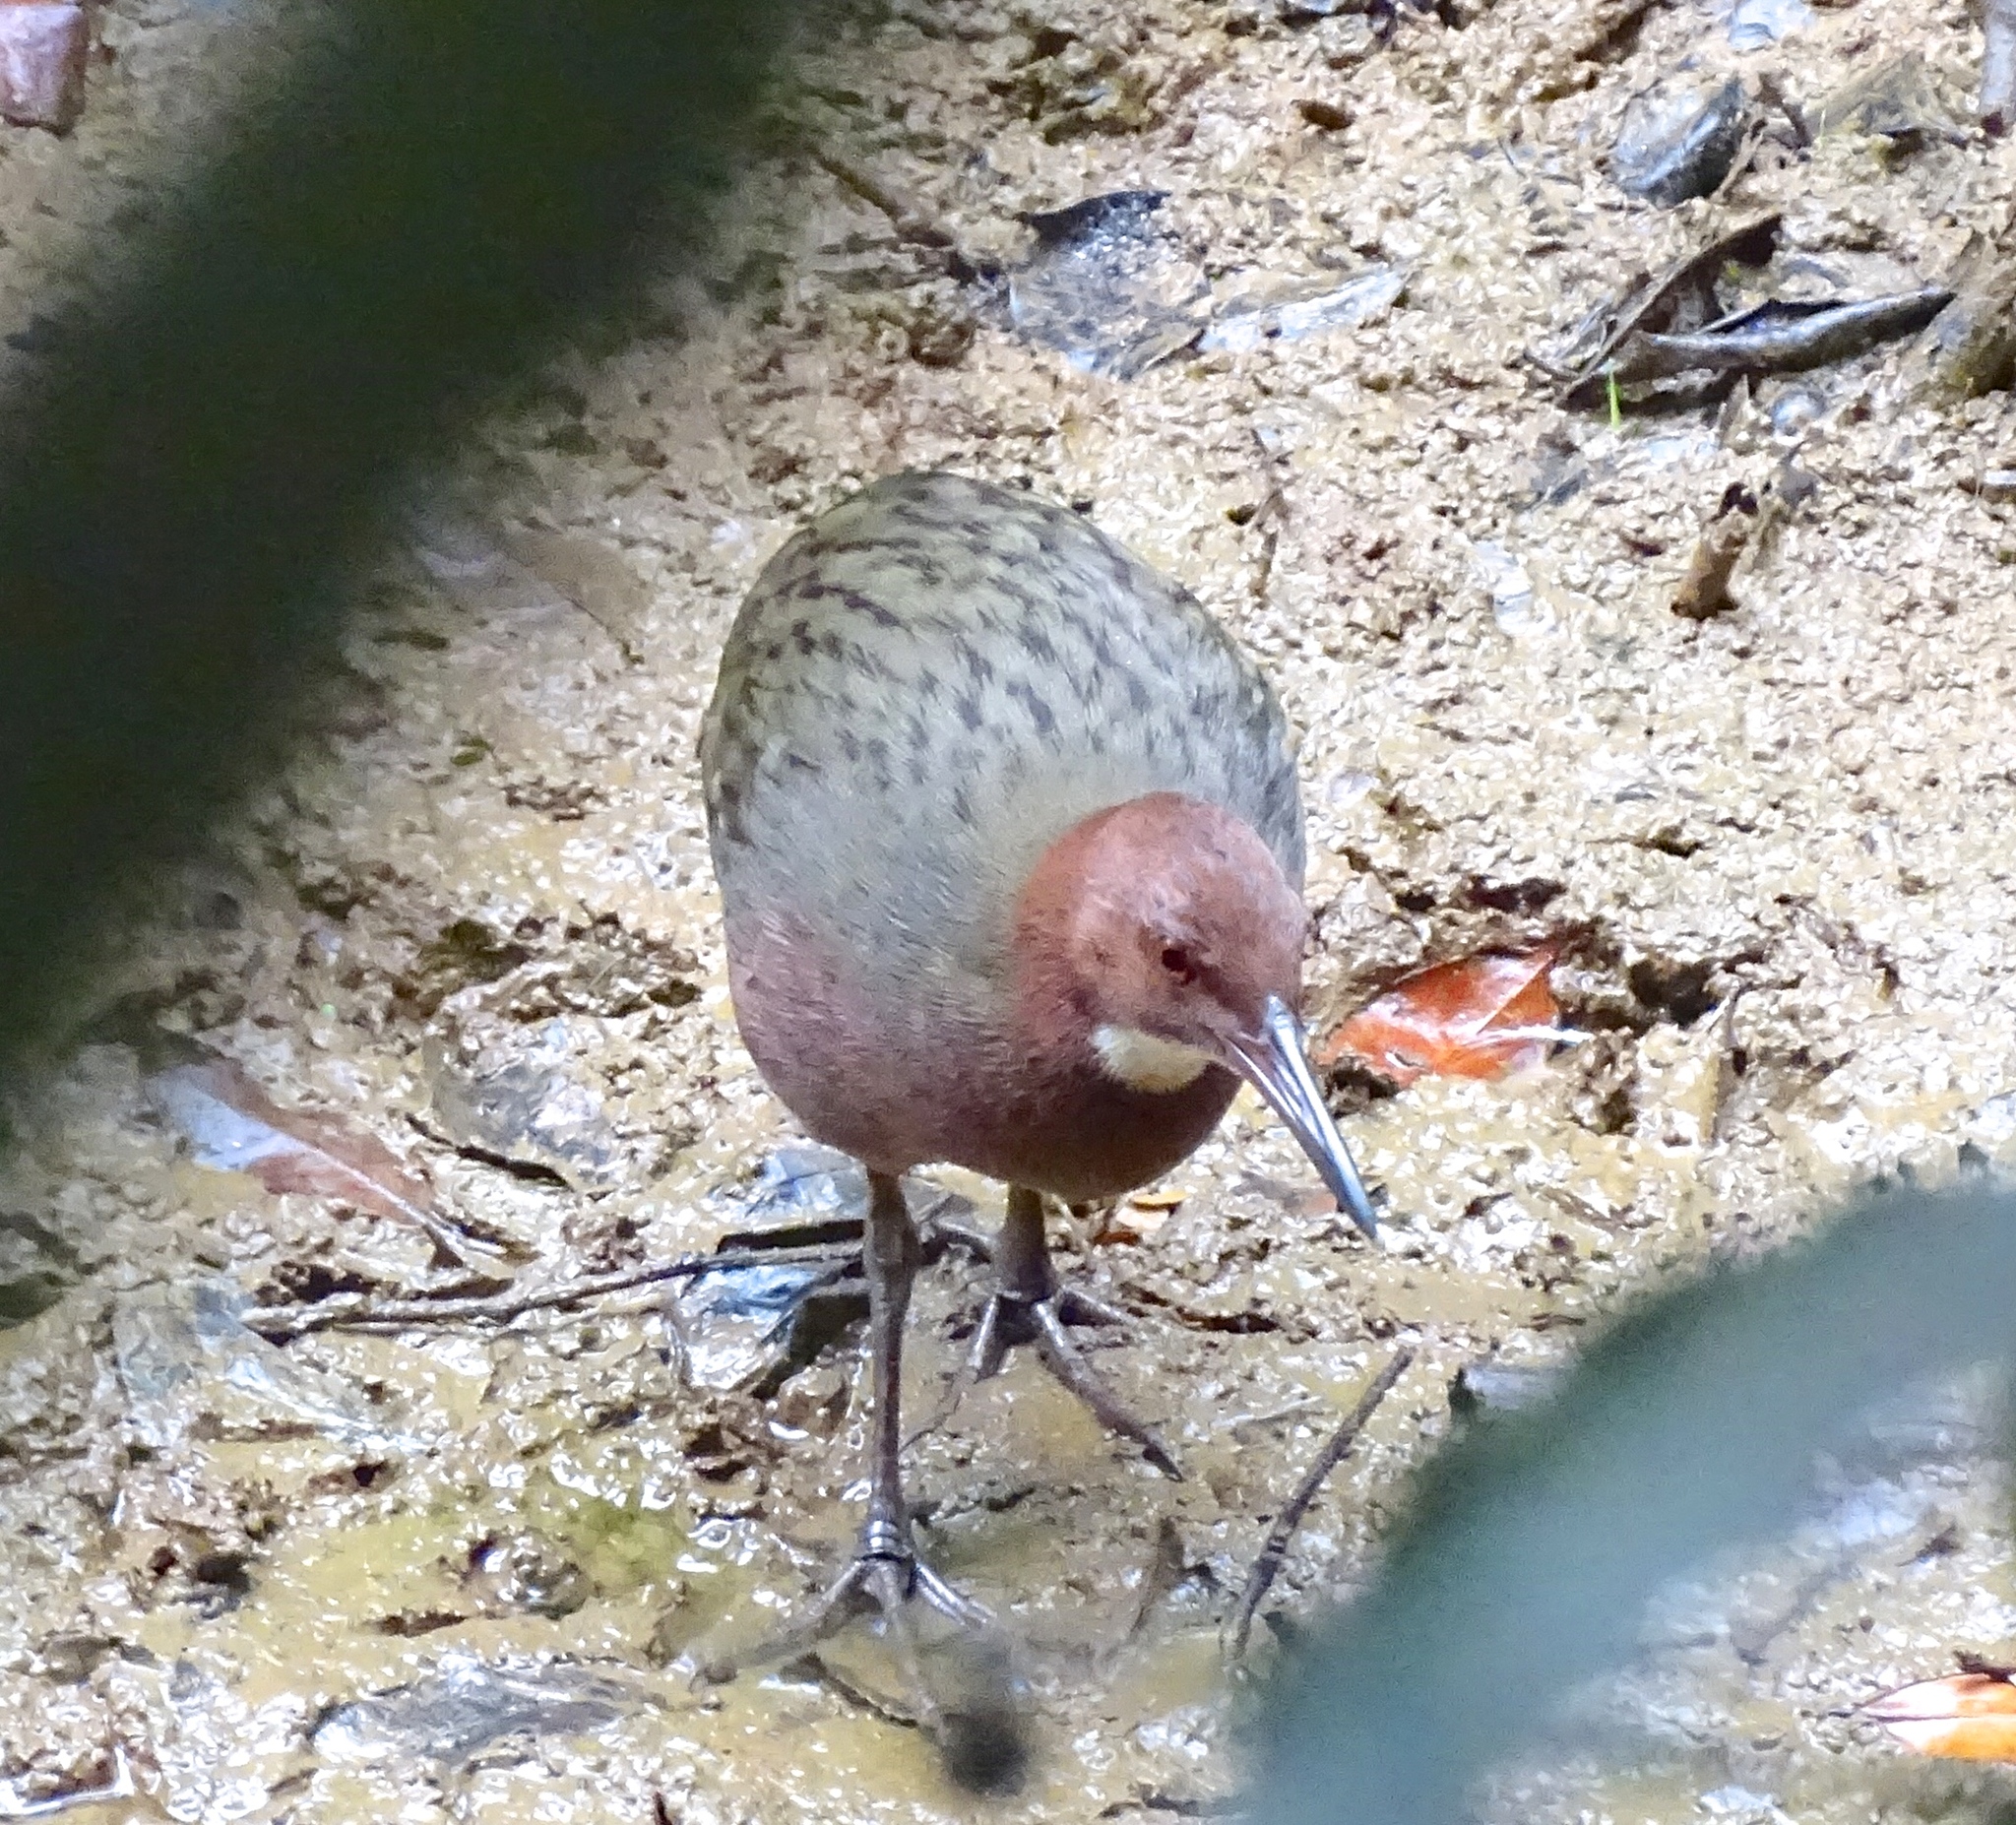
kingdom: Animalia
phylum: Chordata
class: Aves
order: Gruiformes
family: Rallidae
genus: Dryolimnas
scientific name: Dryolimnas cuvieri
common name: White-throated rail
